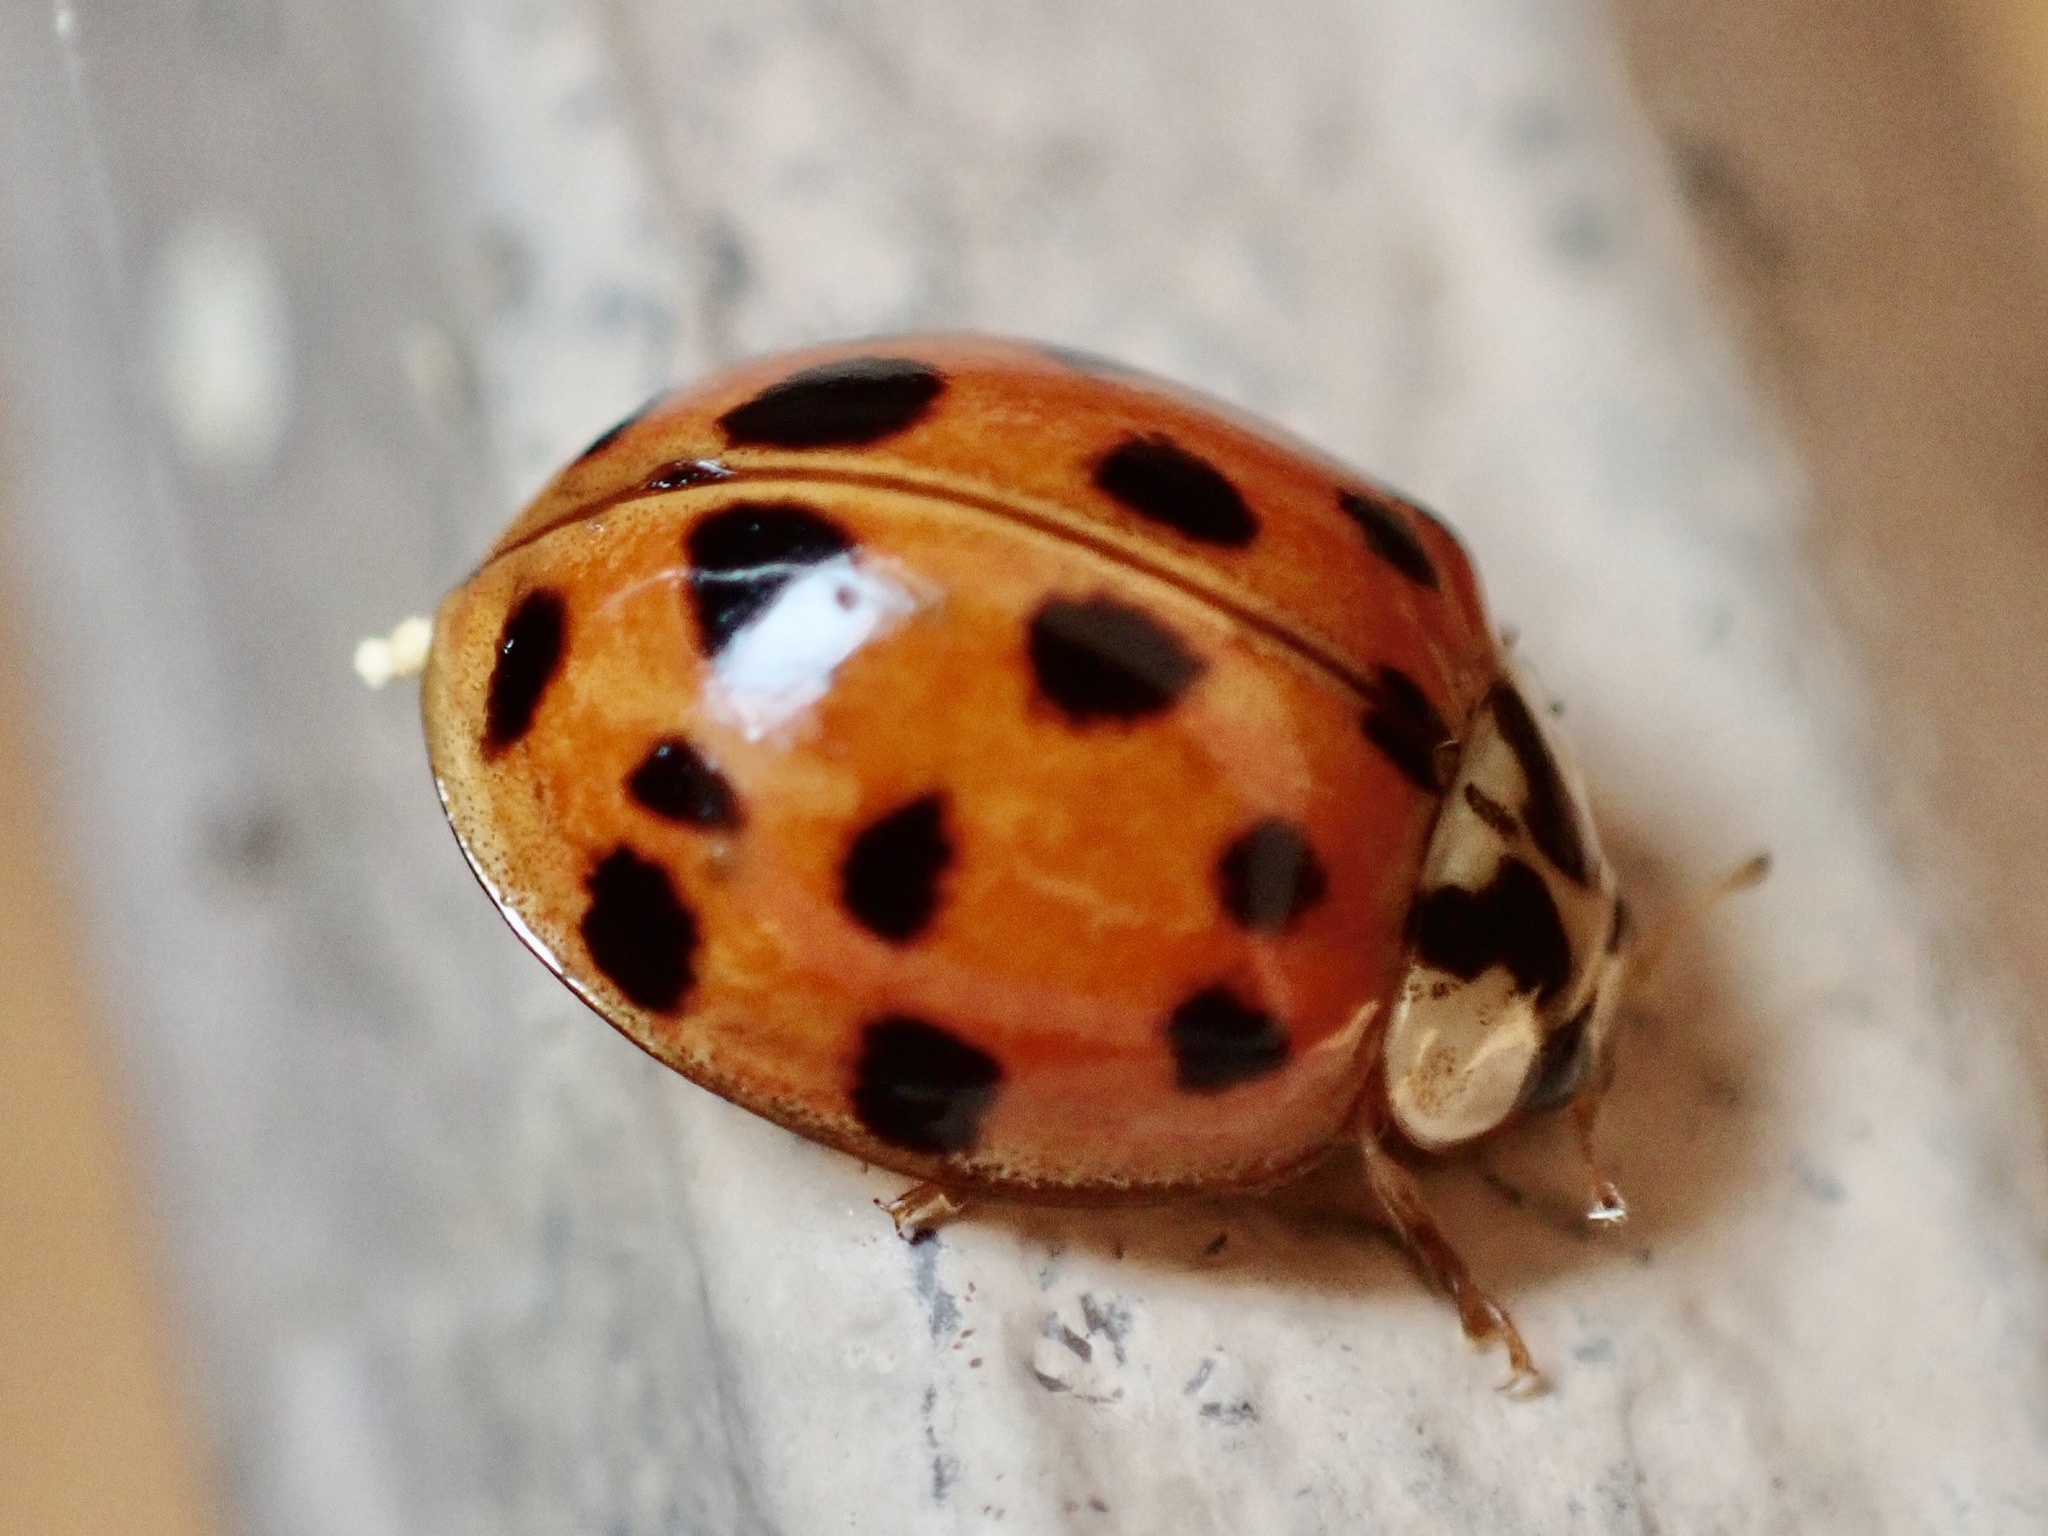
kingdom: Animalia
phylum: Arthropoda
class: Insecta
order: Coleoptera
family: Coccinellidae
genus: Harmonia
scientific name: Harmonia axyridis
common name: Harlequin ladybird
